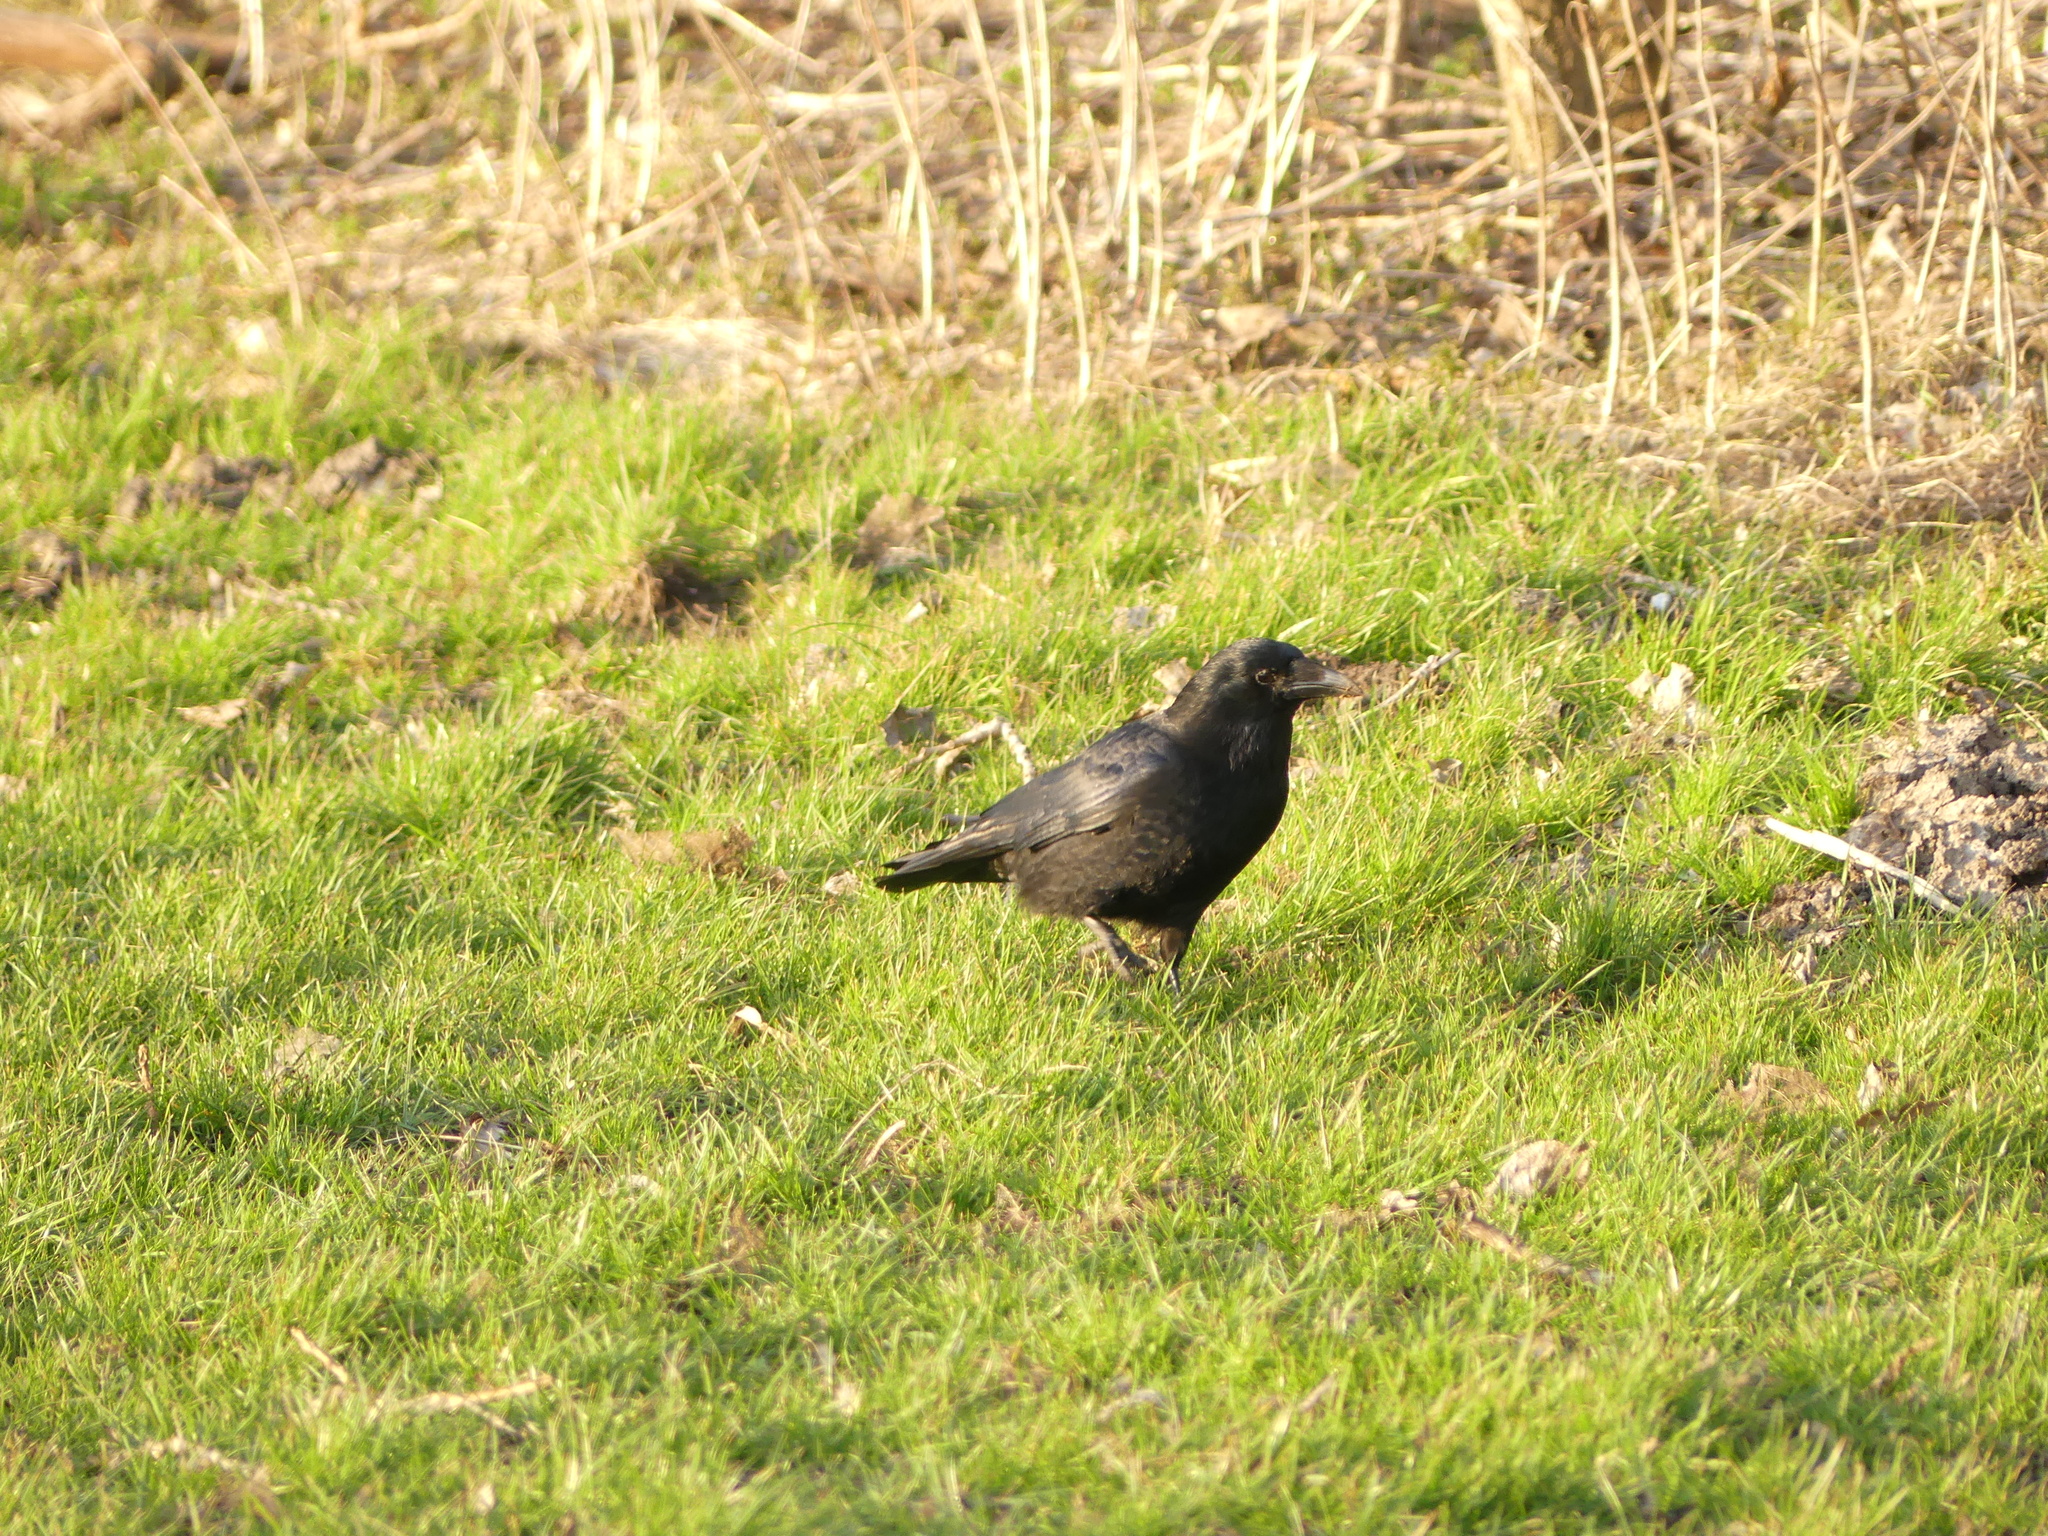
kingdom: Animalia
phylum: Chordata
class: Aves
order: Passeriformes
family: Corvidae
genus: Corvus
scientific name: Corvus corone
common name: Carrion crow
